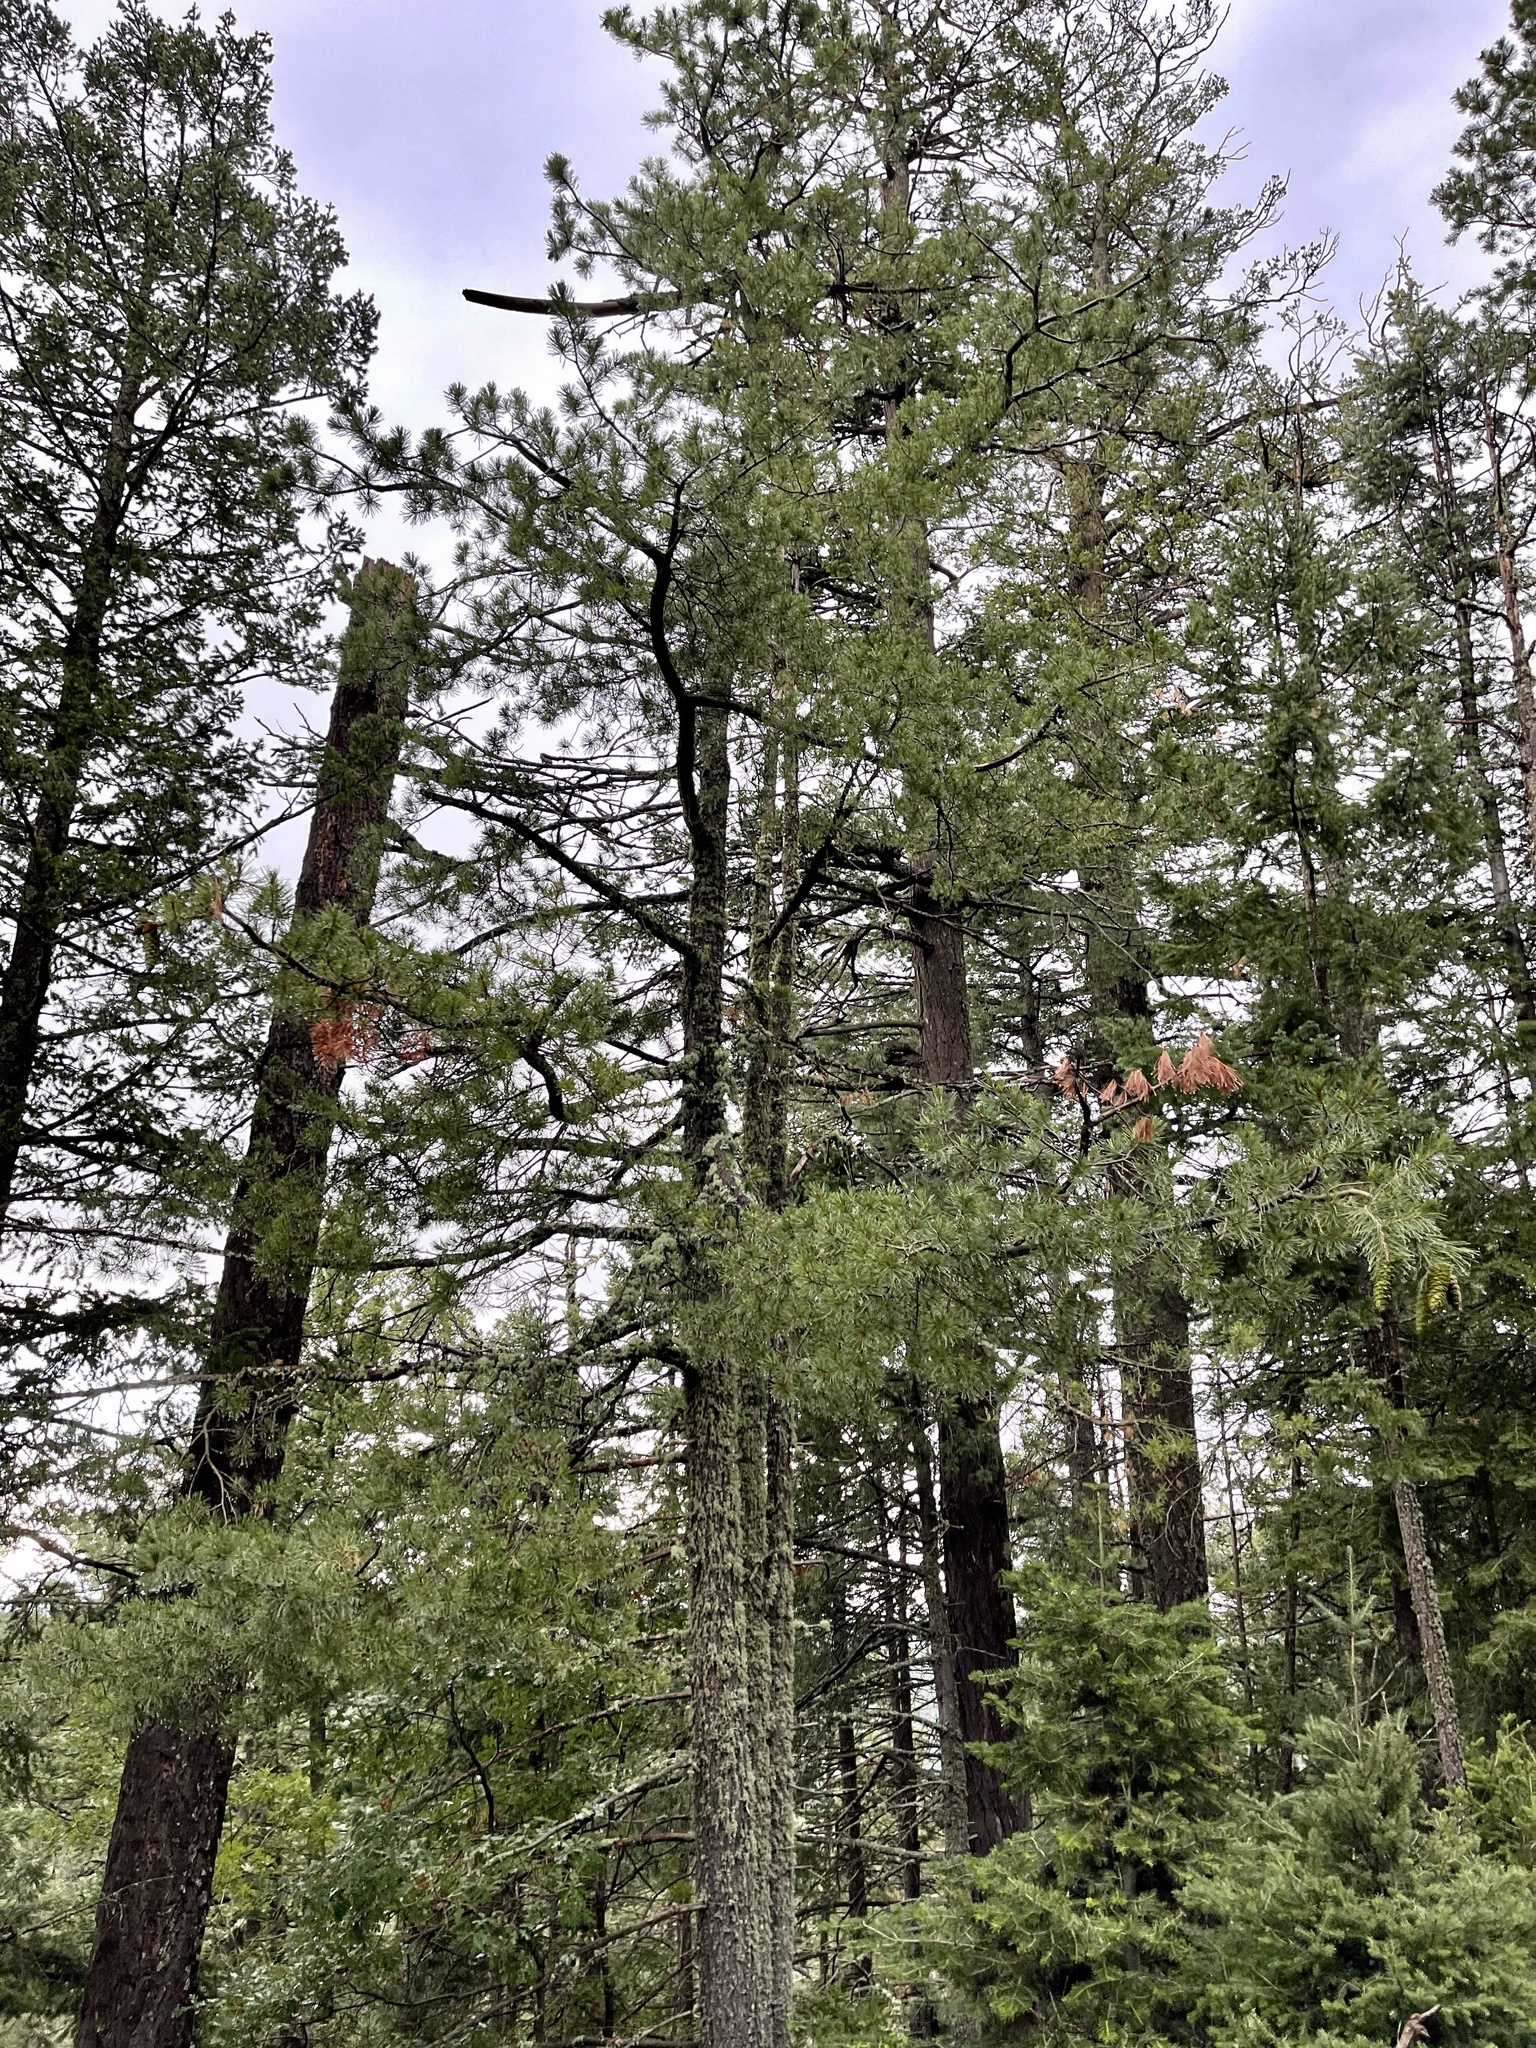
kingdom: Plantae
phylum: Tracheophyta
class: Pinopsida
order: Pinales
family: Pinaceae
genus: Pinus
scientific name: Pinus strobiformis
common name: Southwestern white pine
